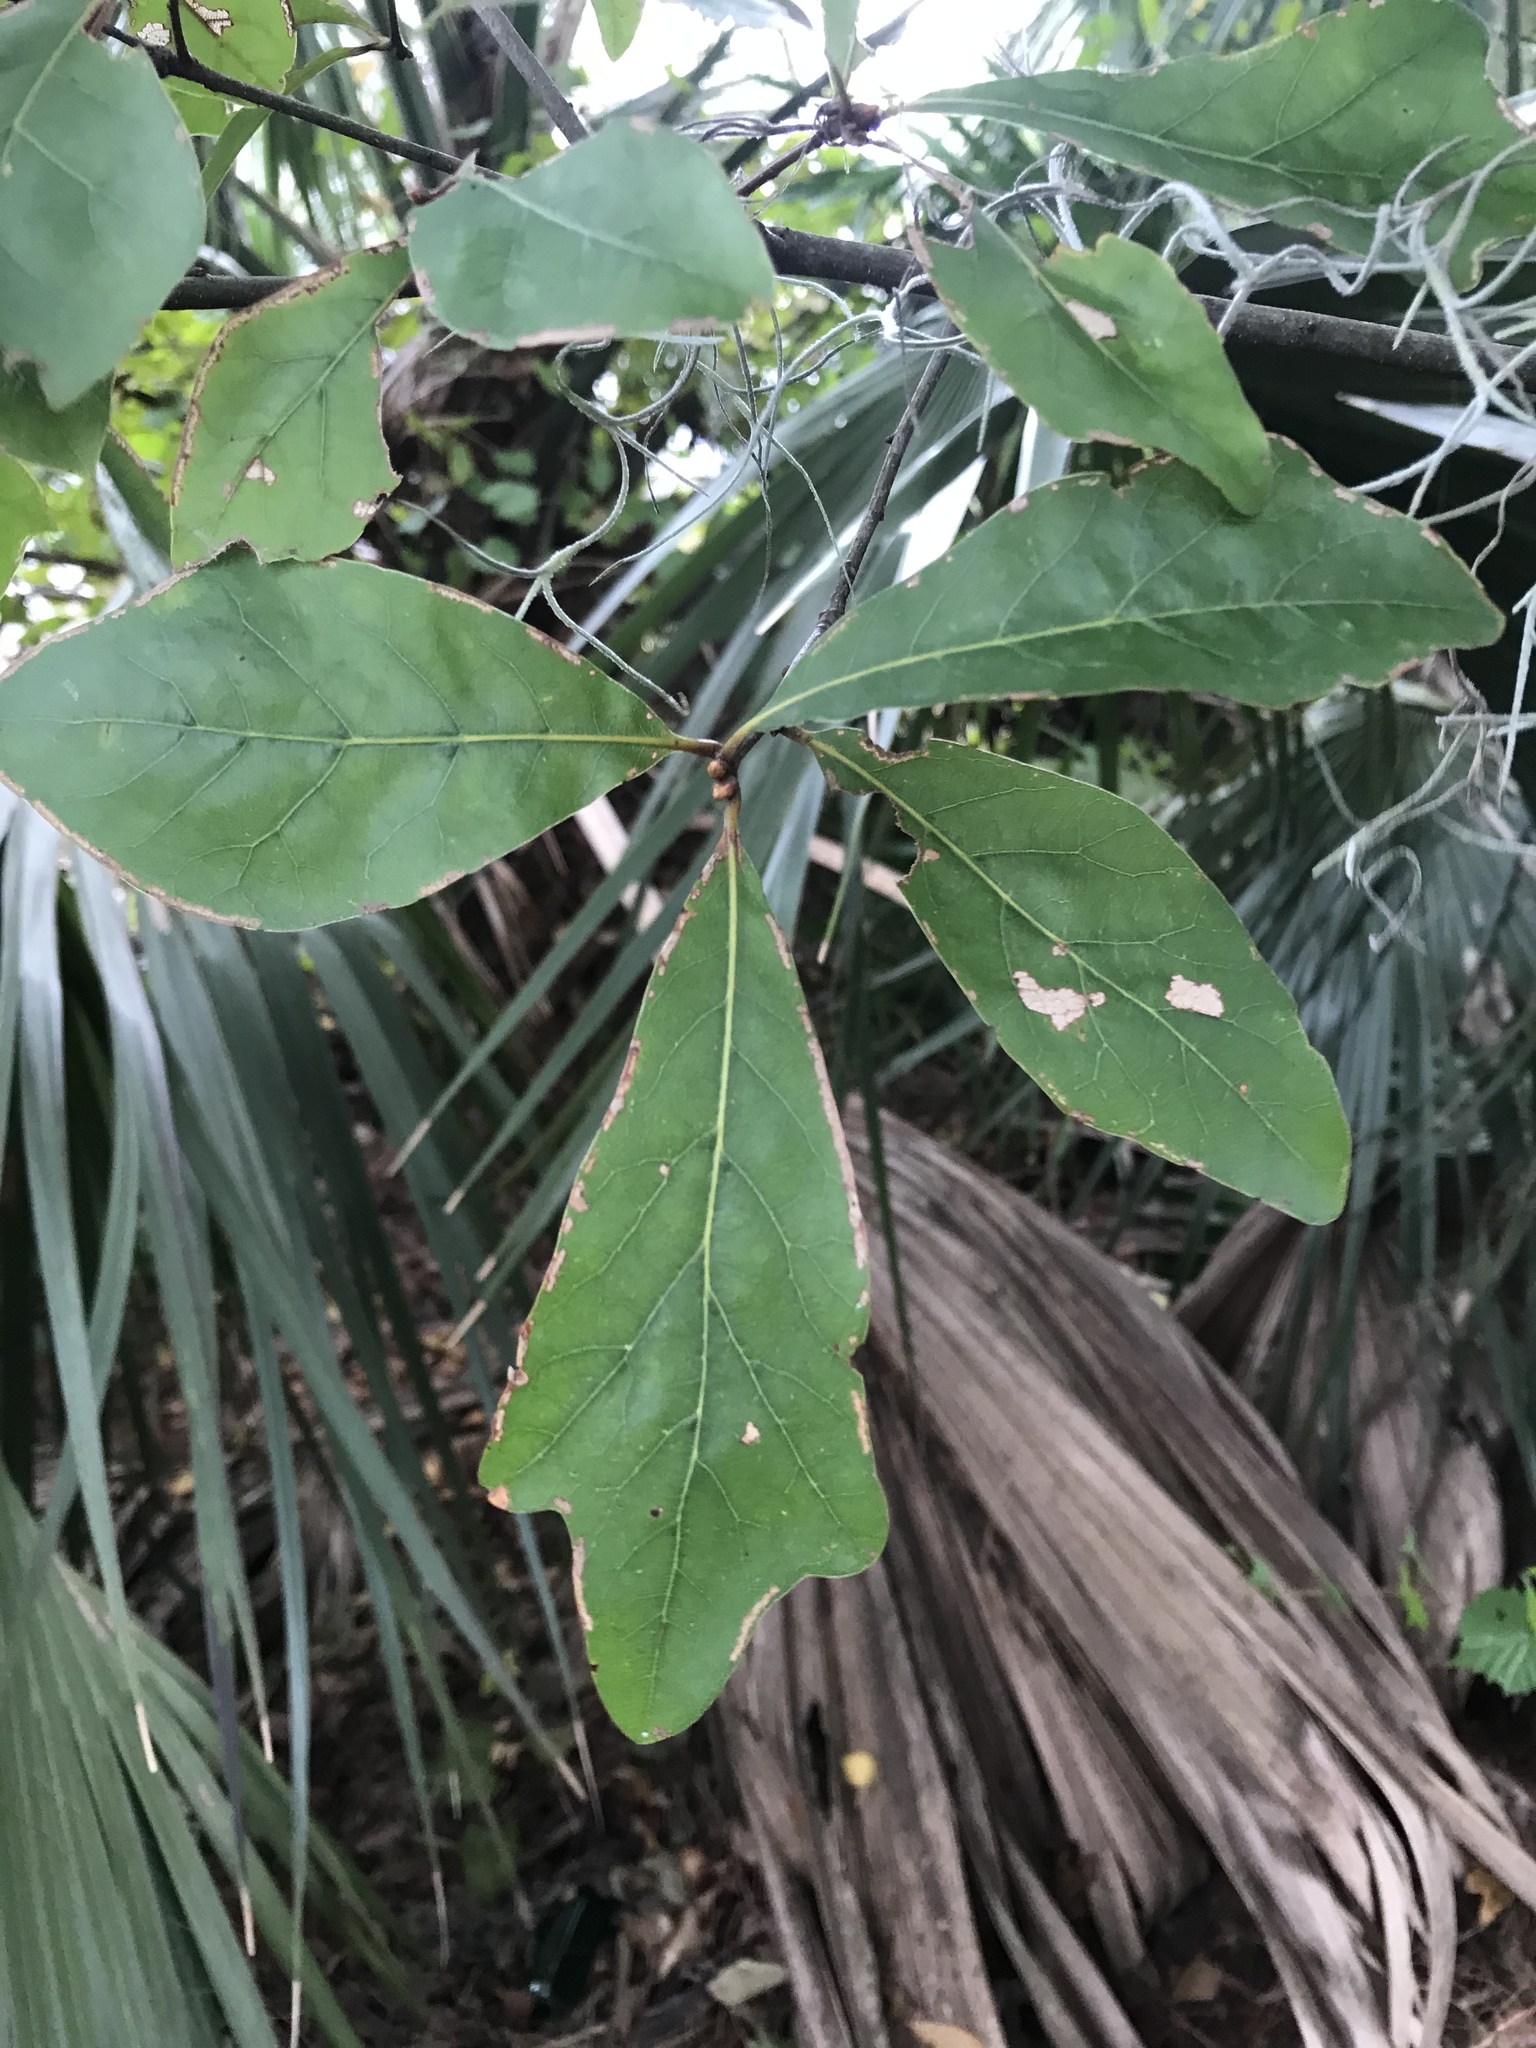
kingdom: Plantae
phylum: Tracheophyta
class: Magnoliopsida
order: Fagales
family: Fagaceae
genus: Quercus
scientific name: Quercus nigra
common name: Water oak
